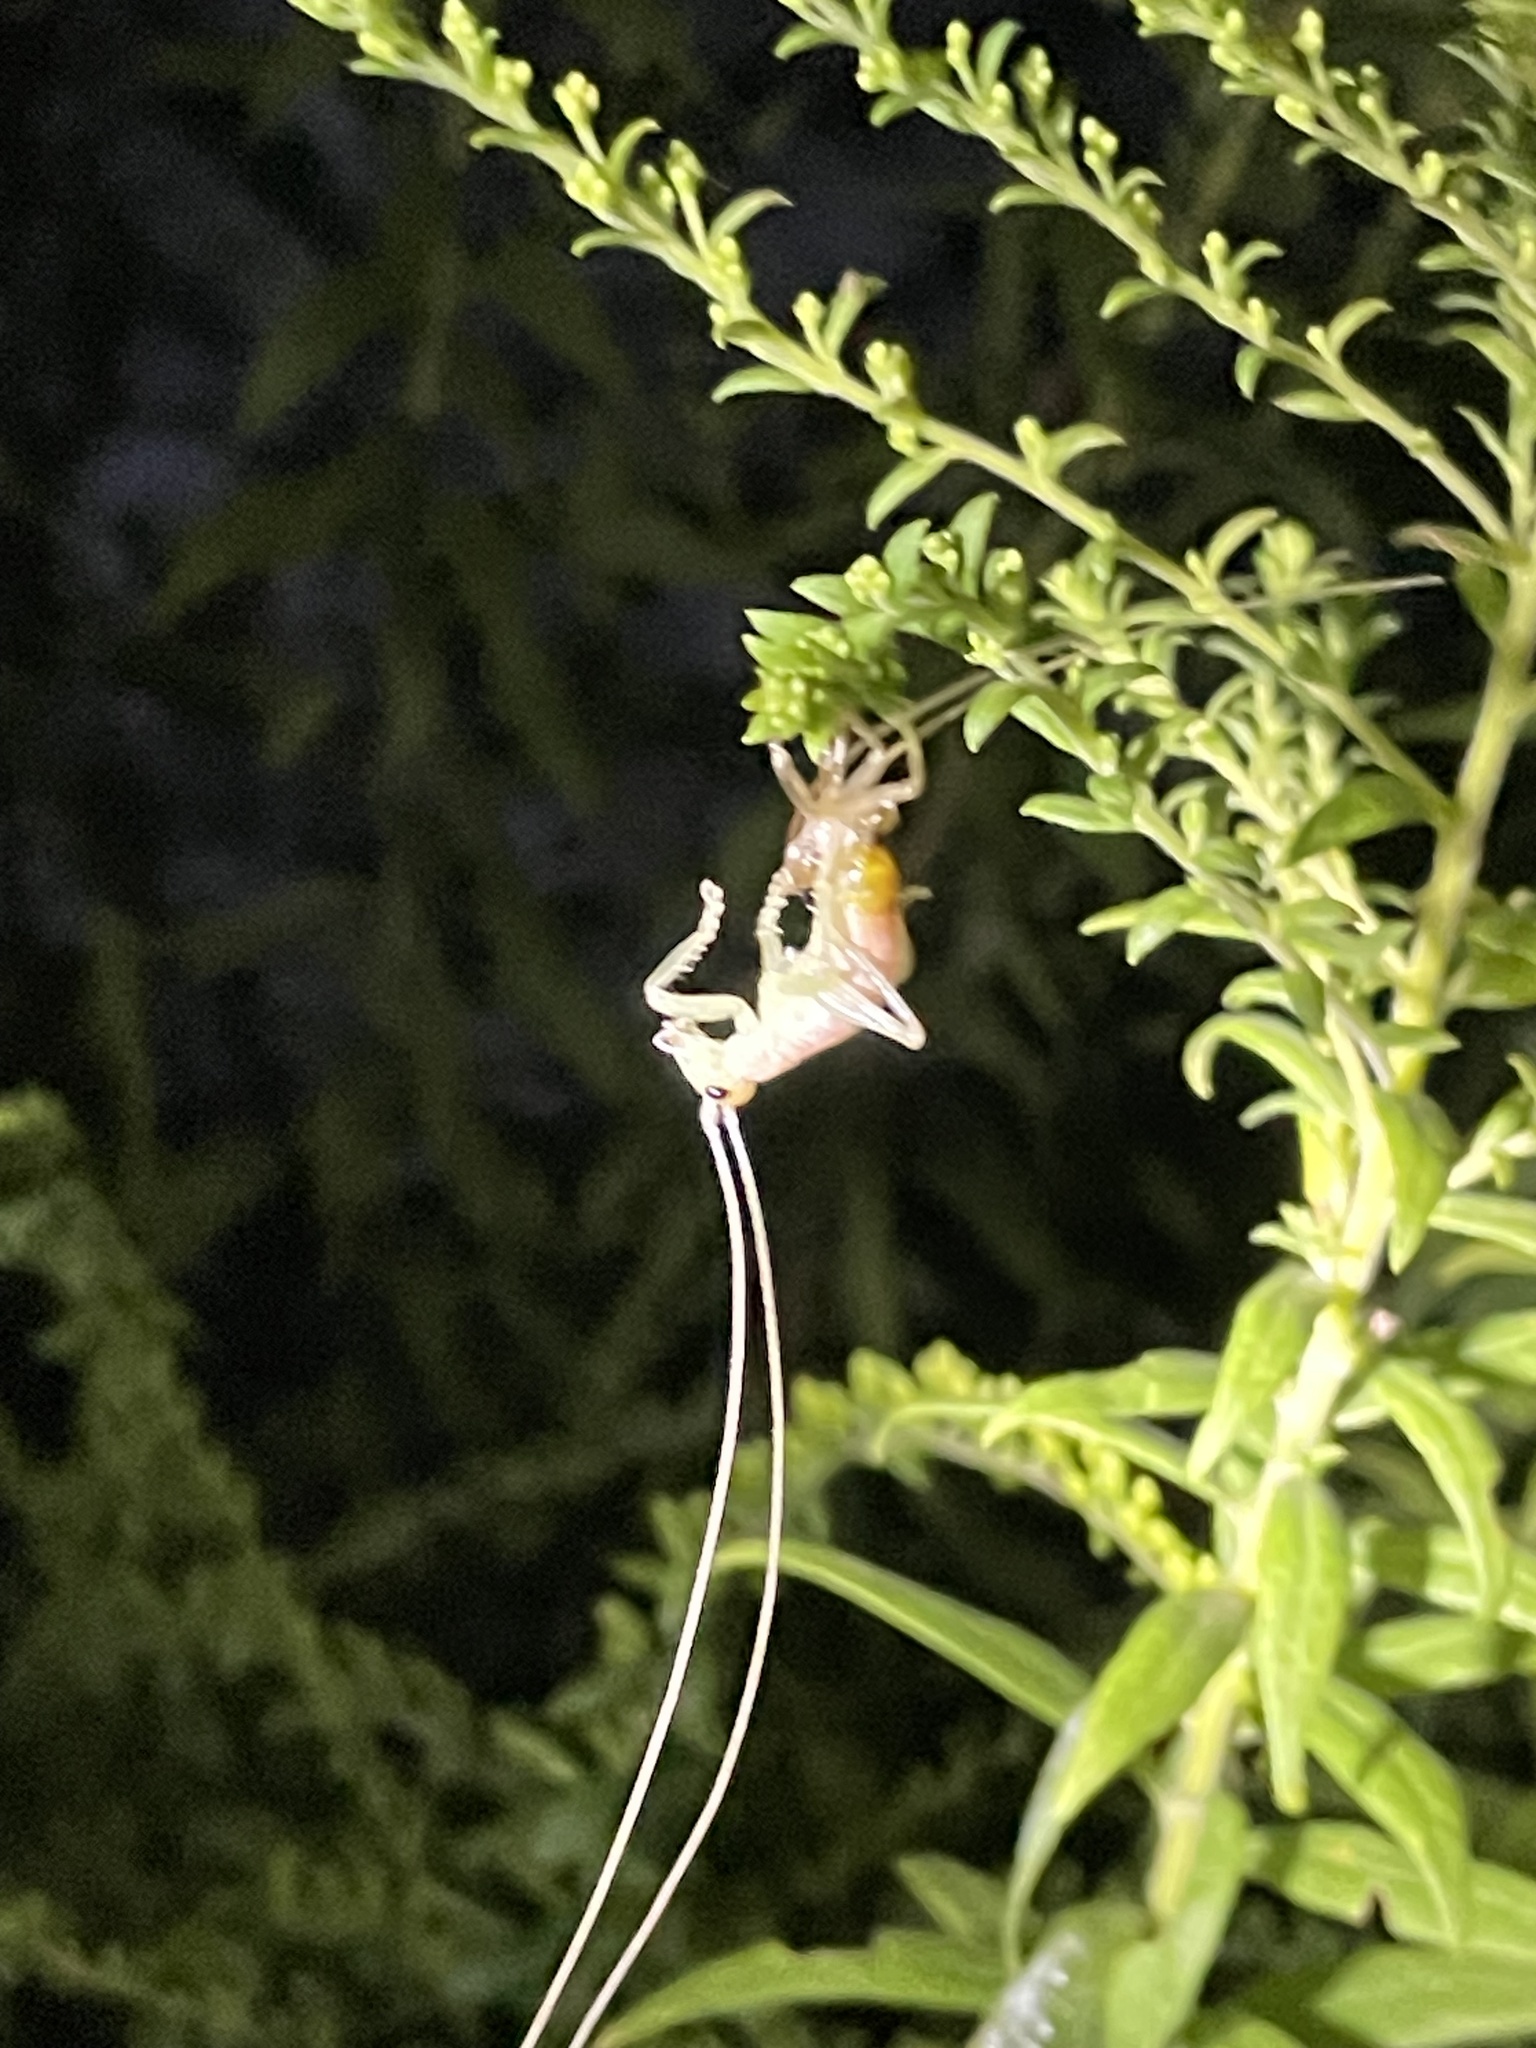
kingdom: Animalia
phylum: Arthropoda
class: Insecta
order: Orthoptera
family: Gryllacrididae
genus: Camptonotus
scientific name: Camptonotus carolinensis
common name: Carolina leaf-roller
